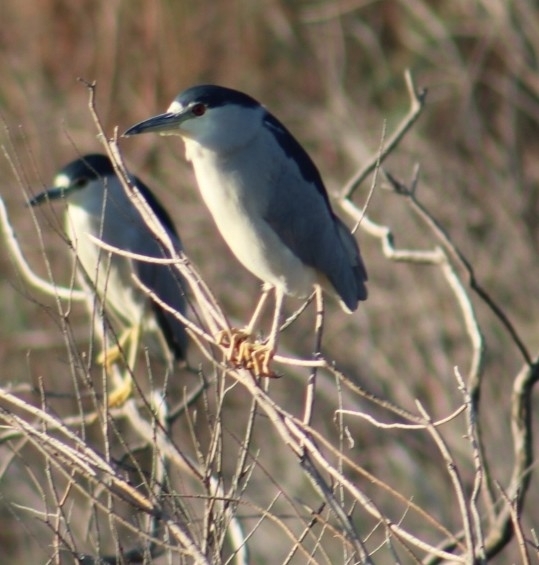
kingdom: Animalia
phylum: Chordata
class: Aves
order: Pelecaniformes
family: Ardeidae
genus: Nycticorax
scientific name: Nycticorax nycticorax
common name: Black-crowned night heron
